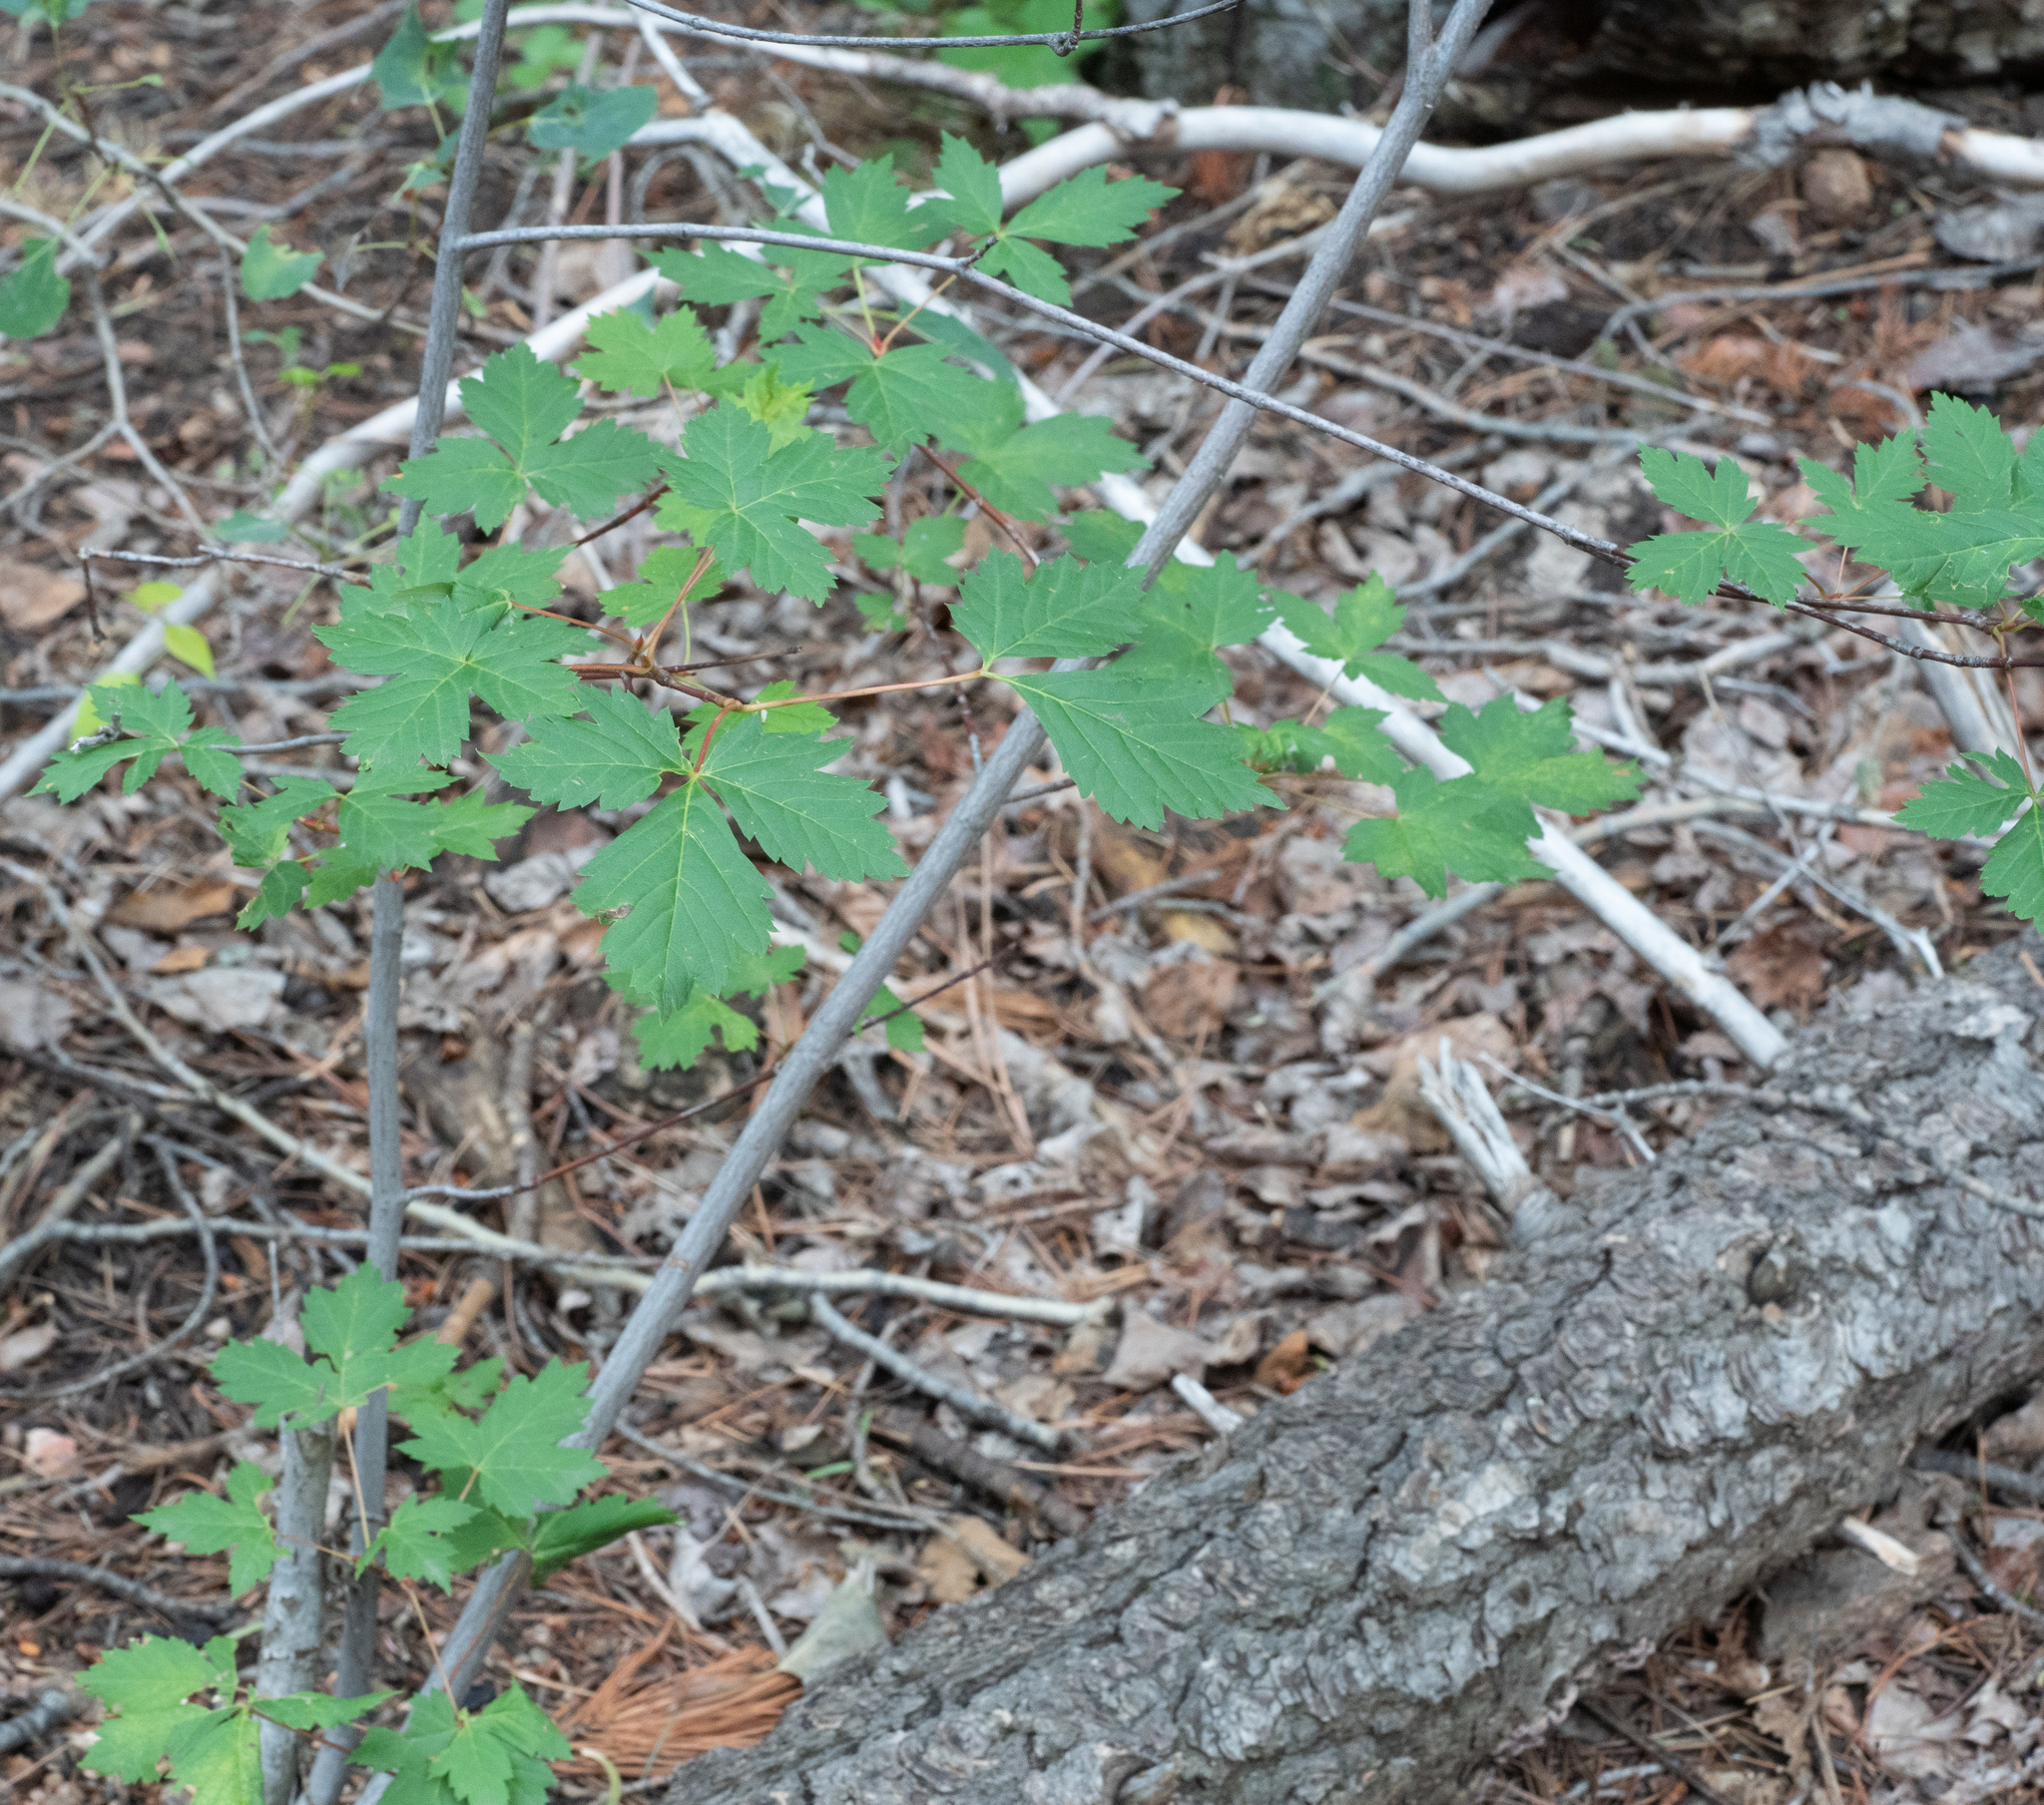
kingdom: Plantae
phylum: Tracheophyta
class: Magnoliopsida
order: Sapindales
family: Sapindaceae
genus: Acer
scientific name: Acer glabrum
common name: Rocky mountain maple
